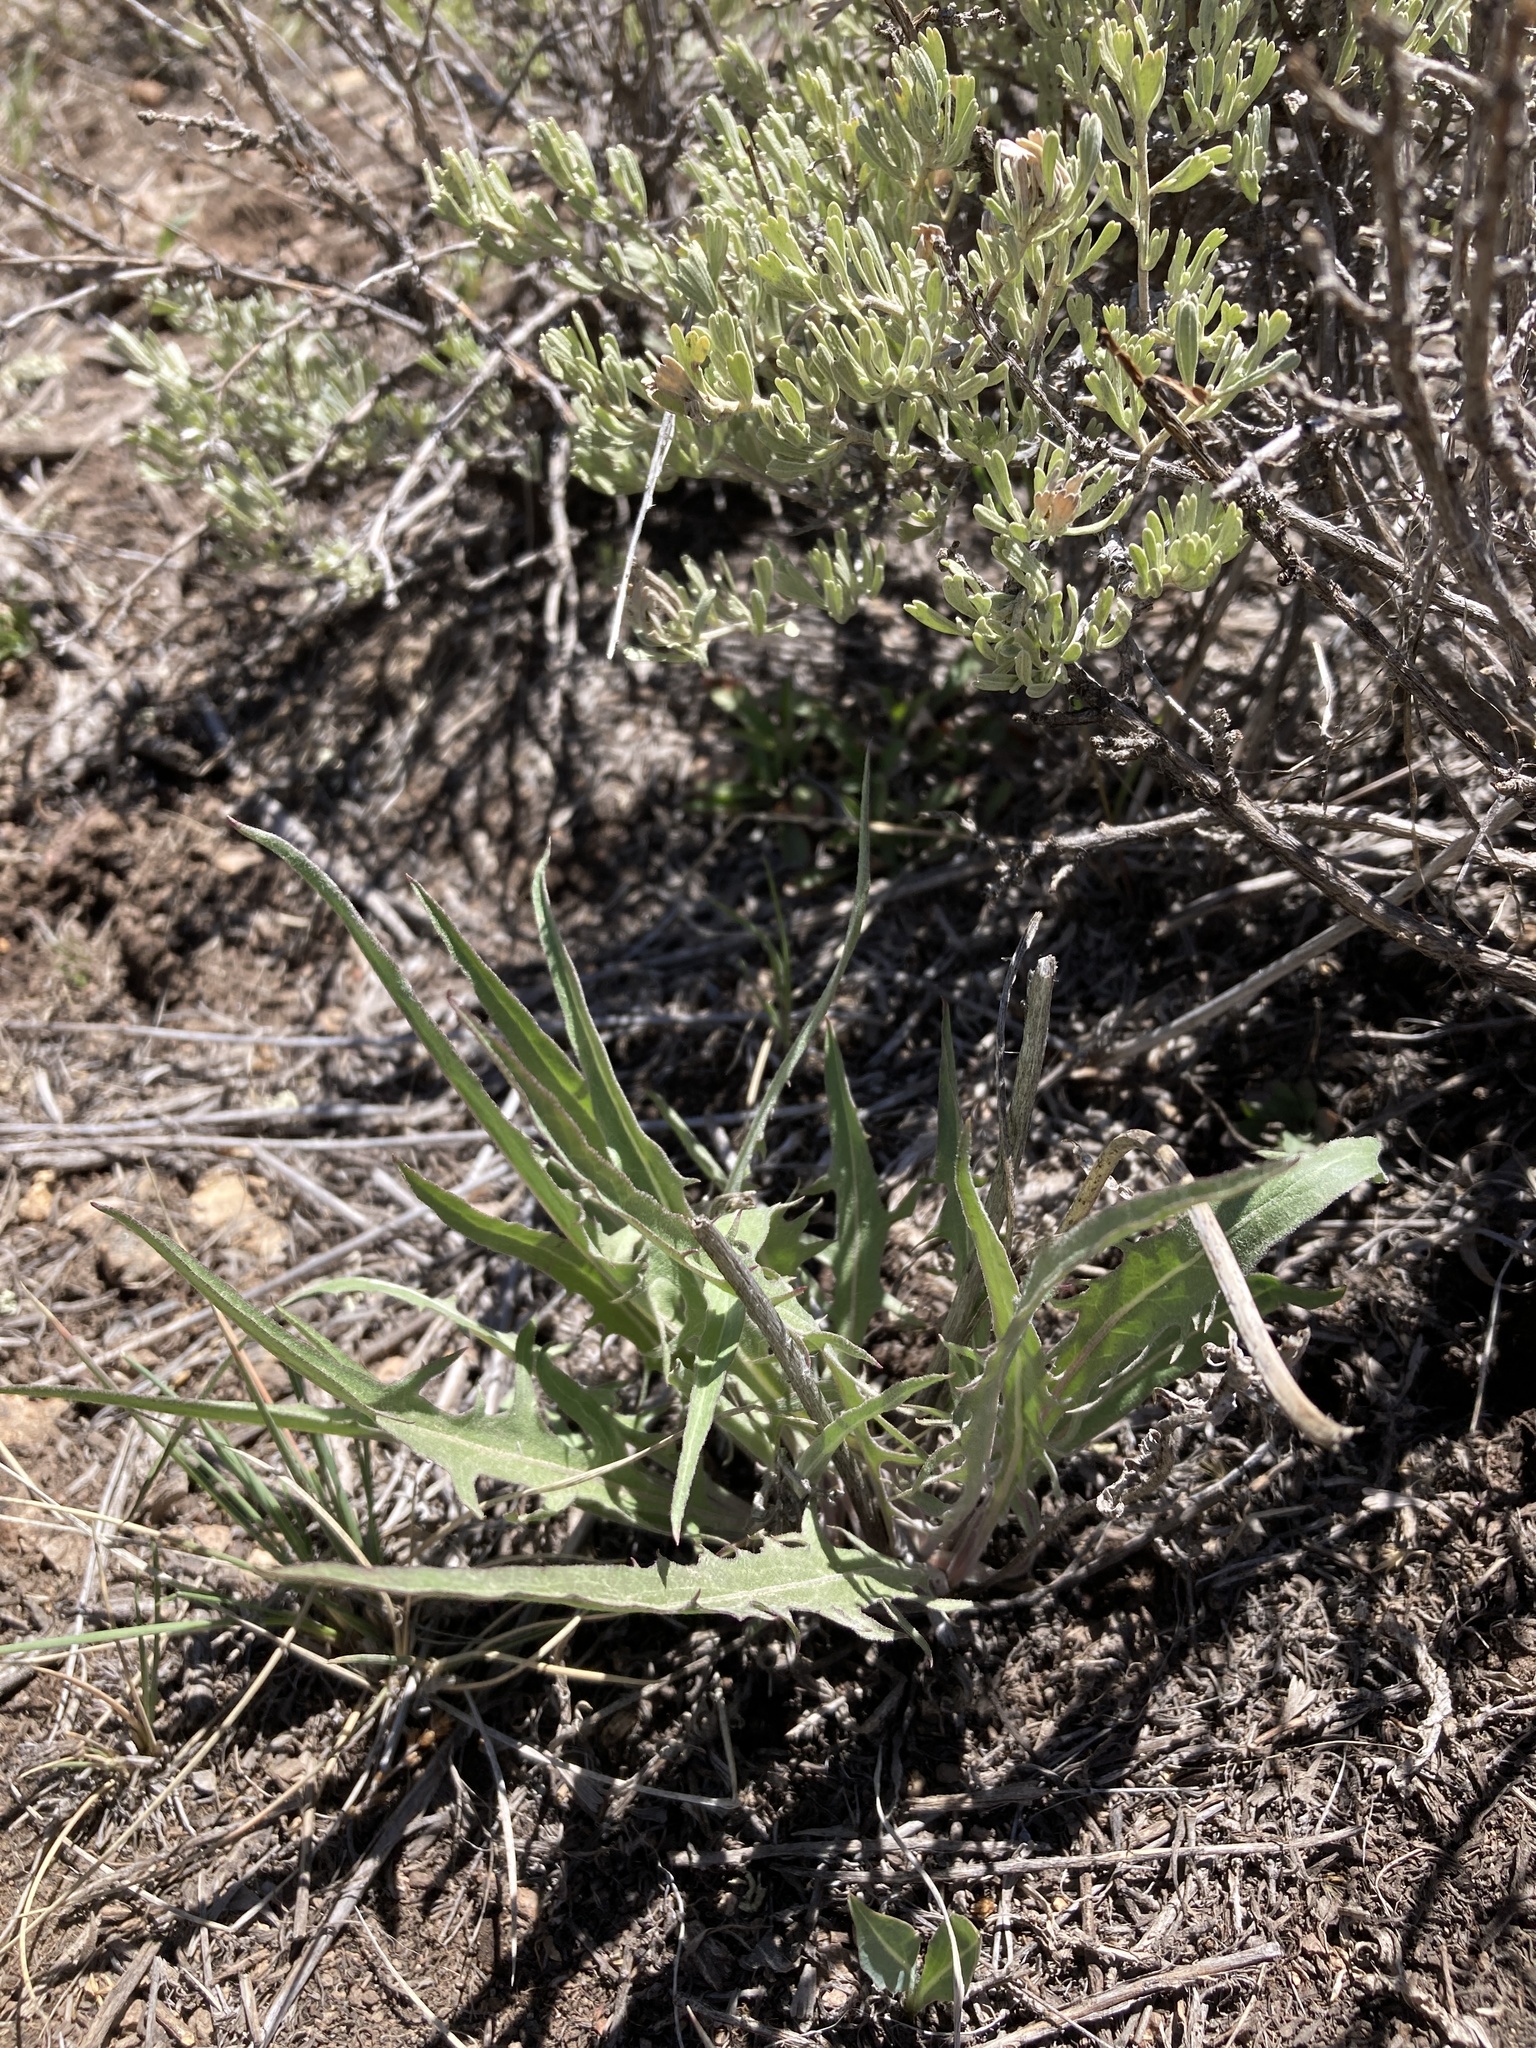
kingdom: Plantae
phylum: Tracheophyta
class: Magnoliopsida
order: Asterales
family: Asteraceae
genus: Crepis
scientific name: Crepis acuminata
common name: Longleaf hawk's-beard
